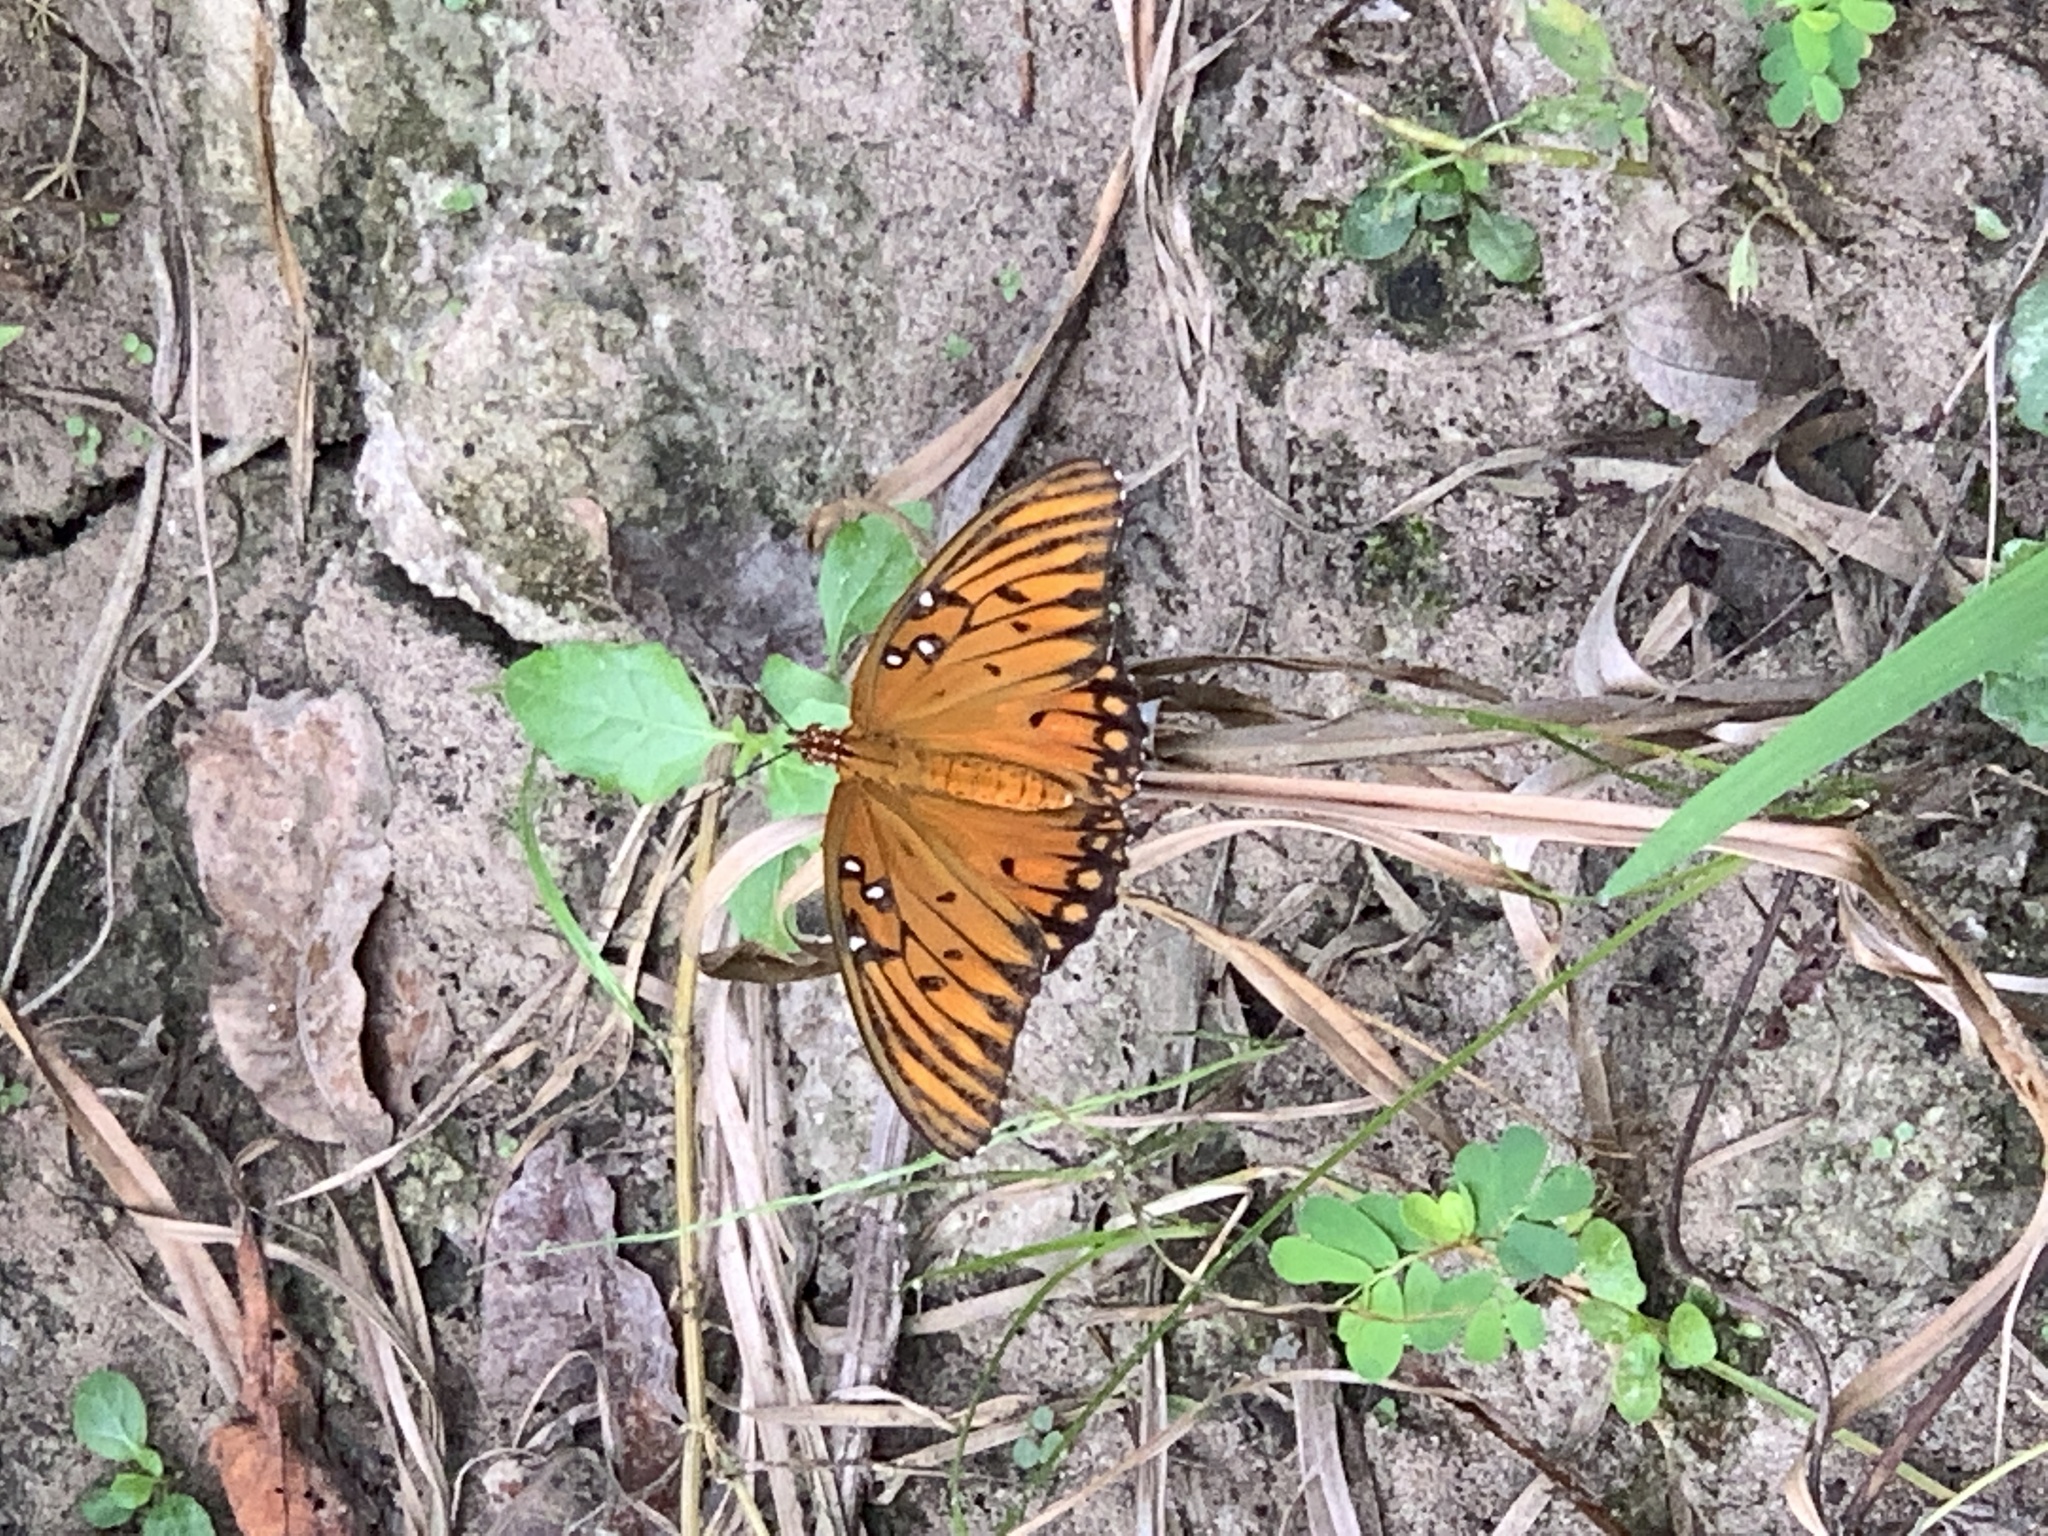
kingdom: Animalia
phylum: Arthropoda
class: Insecta
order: Lepidoptera
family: Nymphalidae
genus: Dione
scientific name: Dione vanillae
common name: Gulf fritillary
